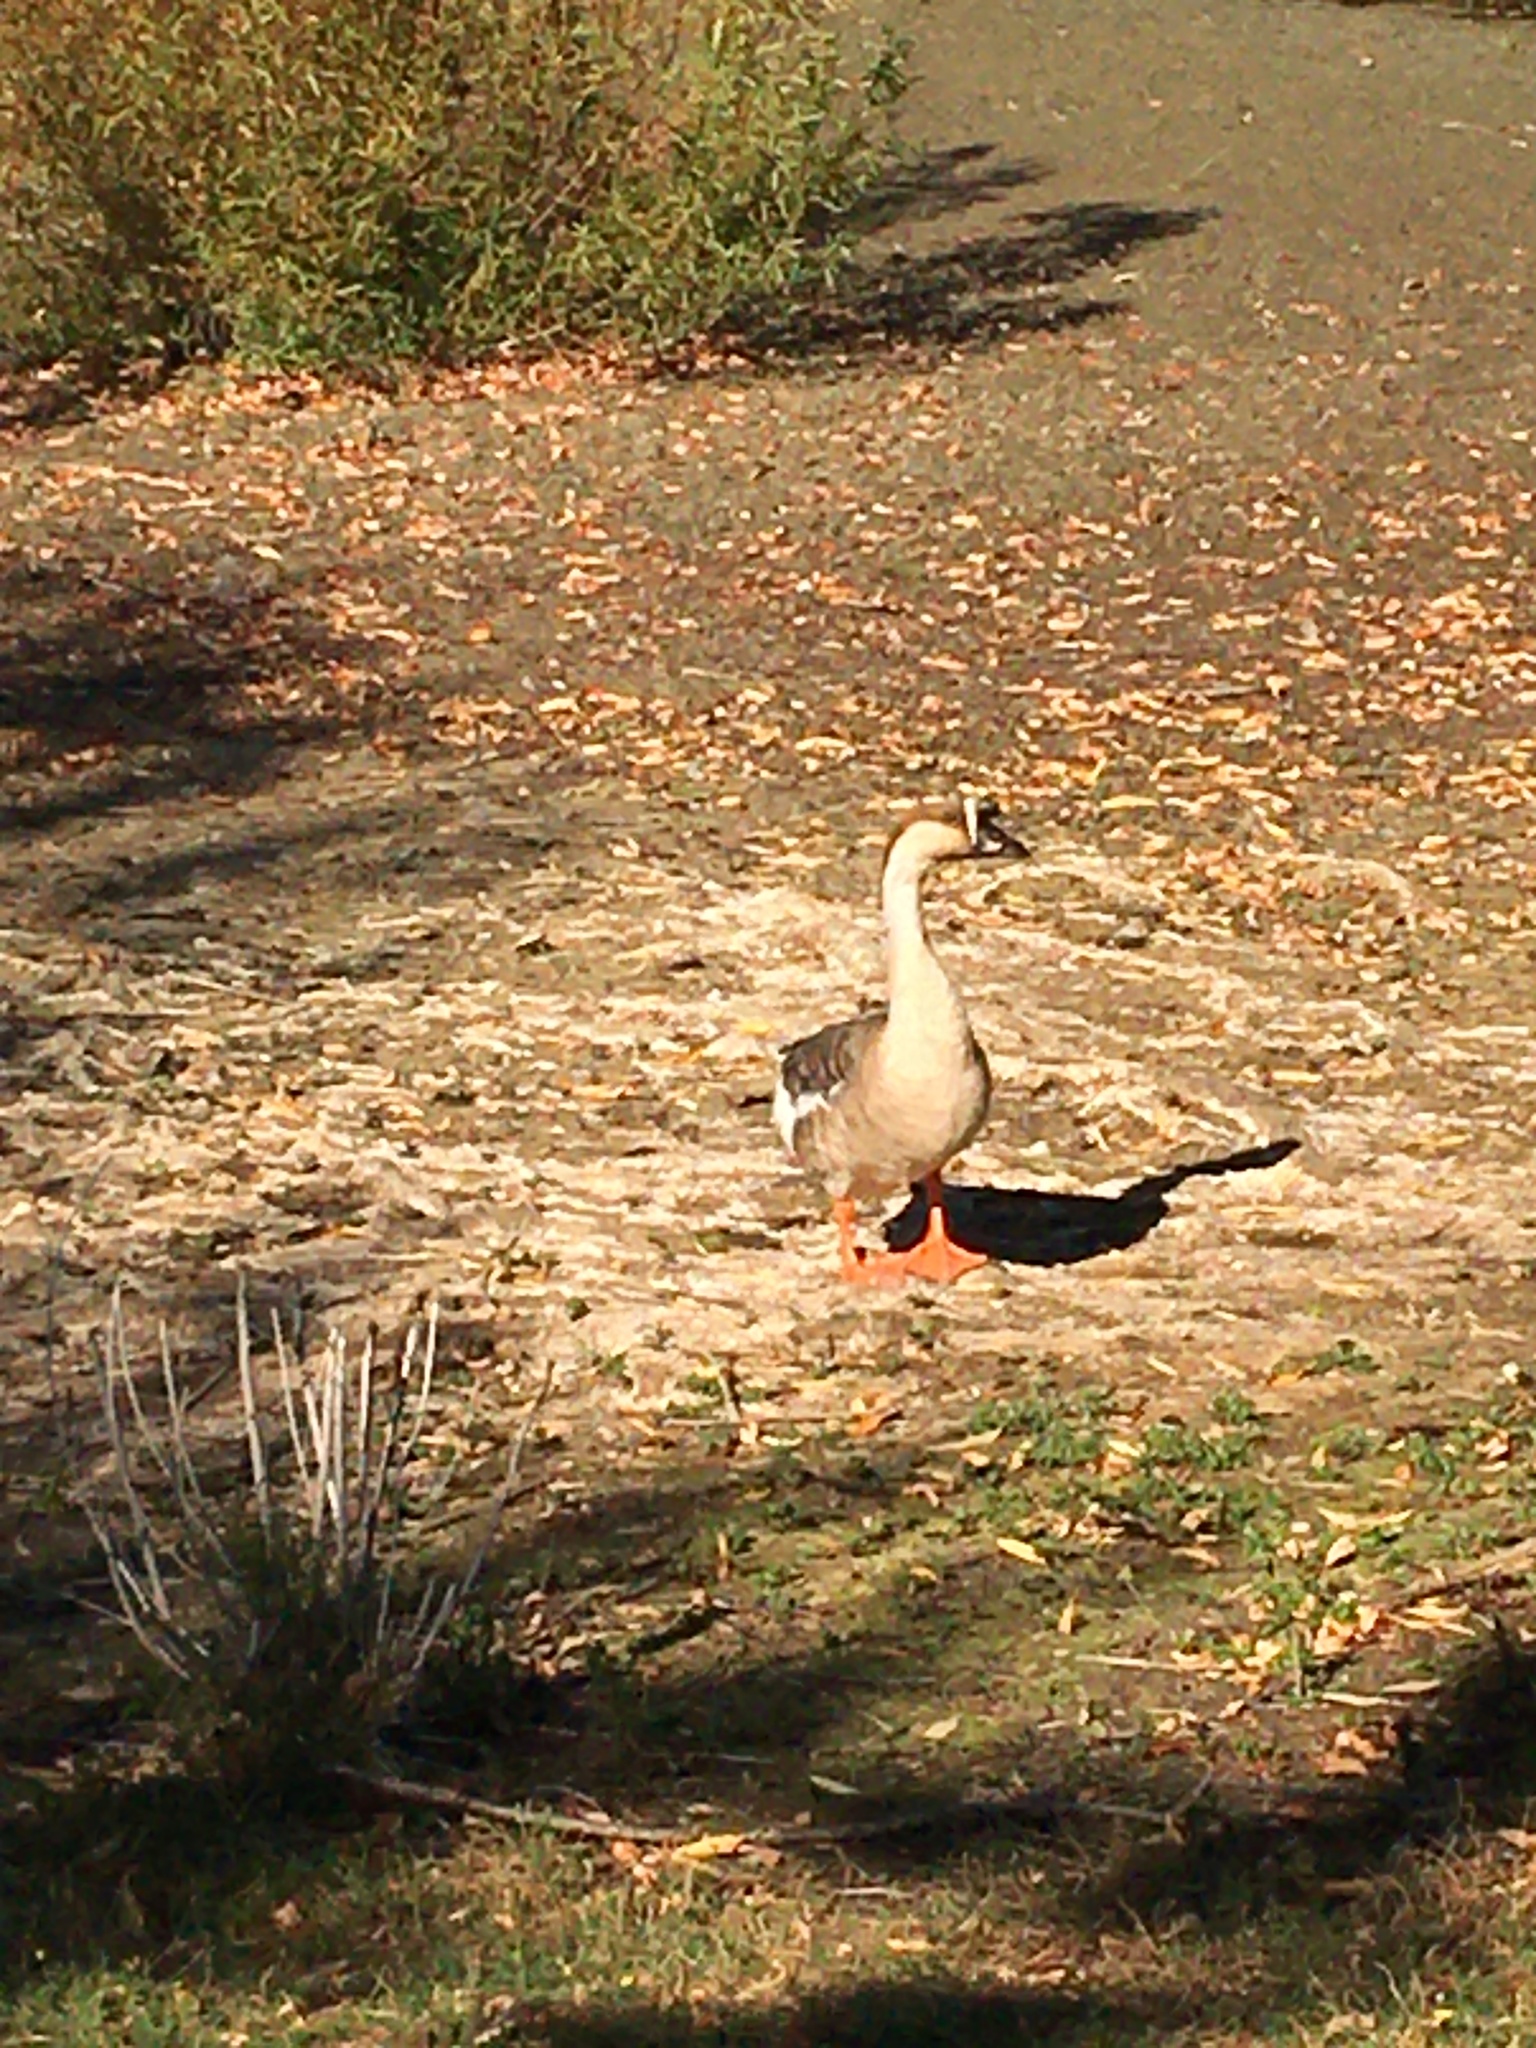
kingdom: Animalia
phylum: Chordata
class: Aves
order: Anseriformes
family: Anatidae
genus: Anser
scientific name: Anser cygnoides
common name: Swan goose
